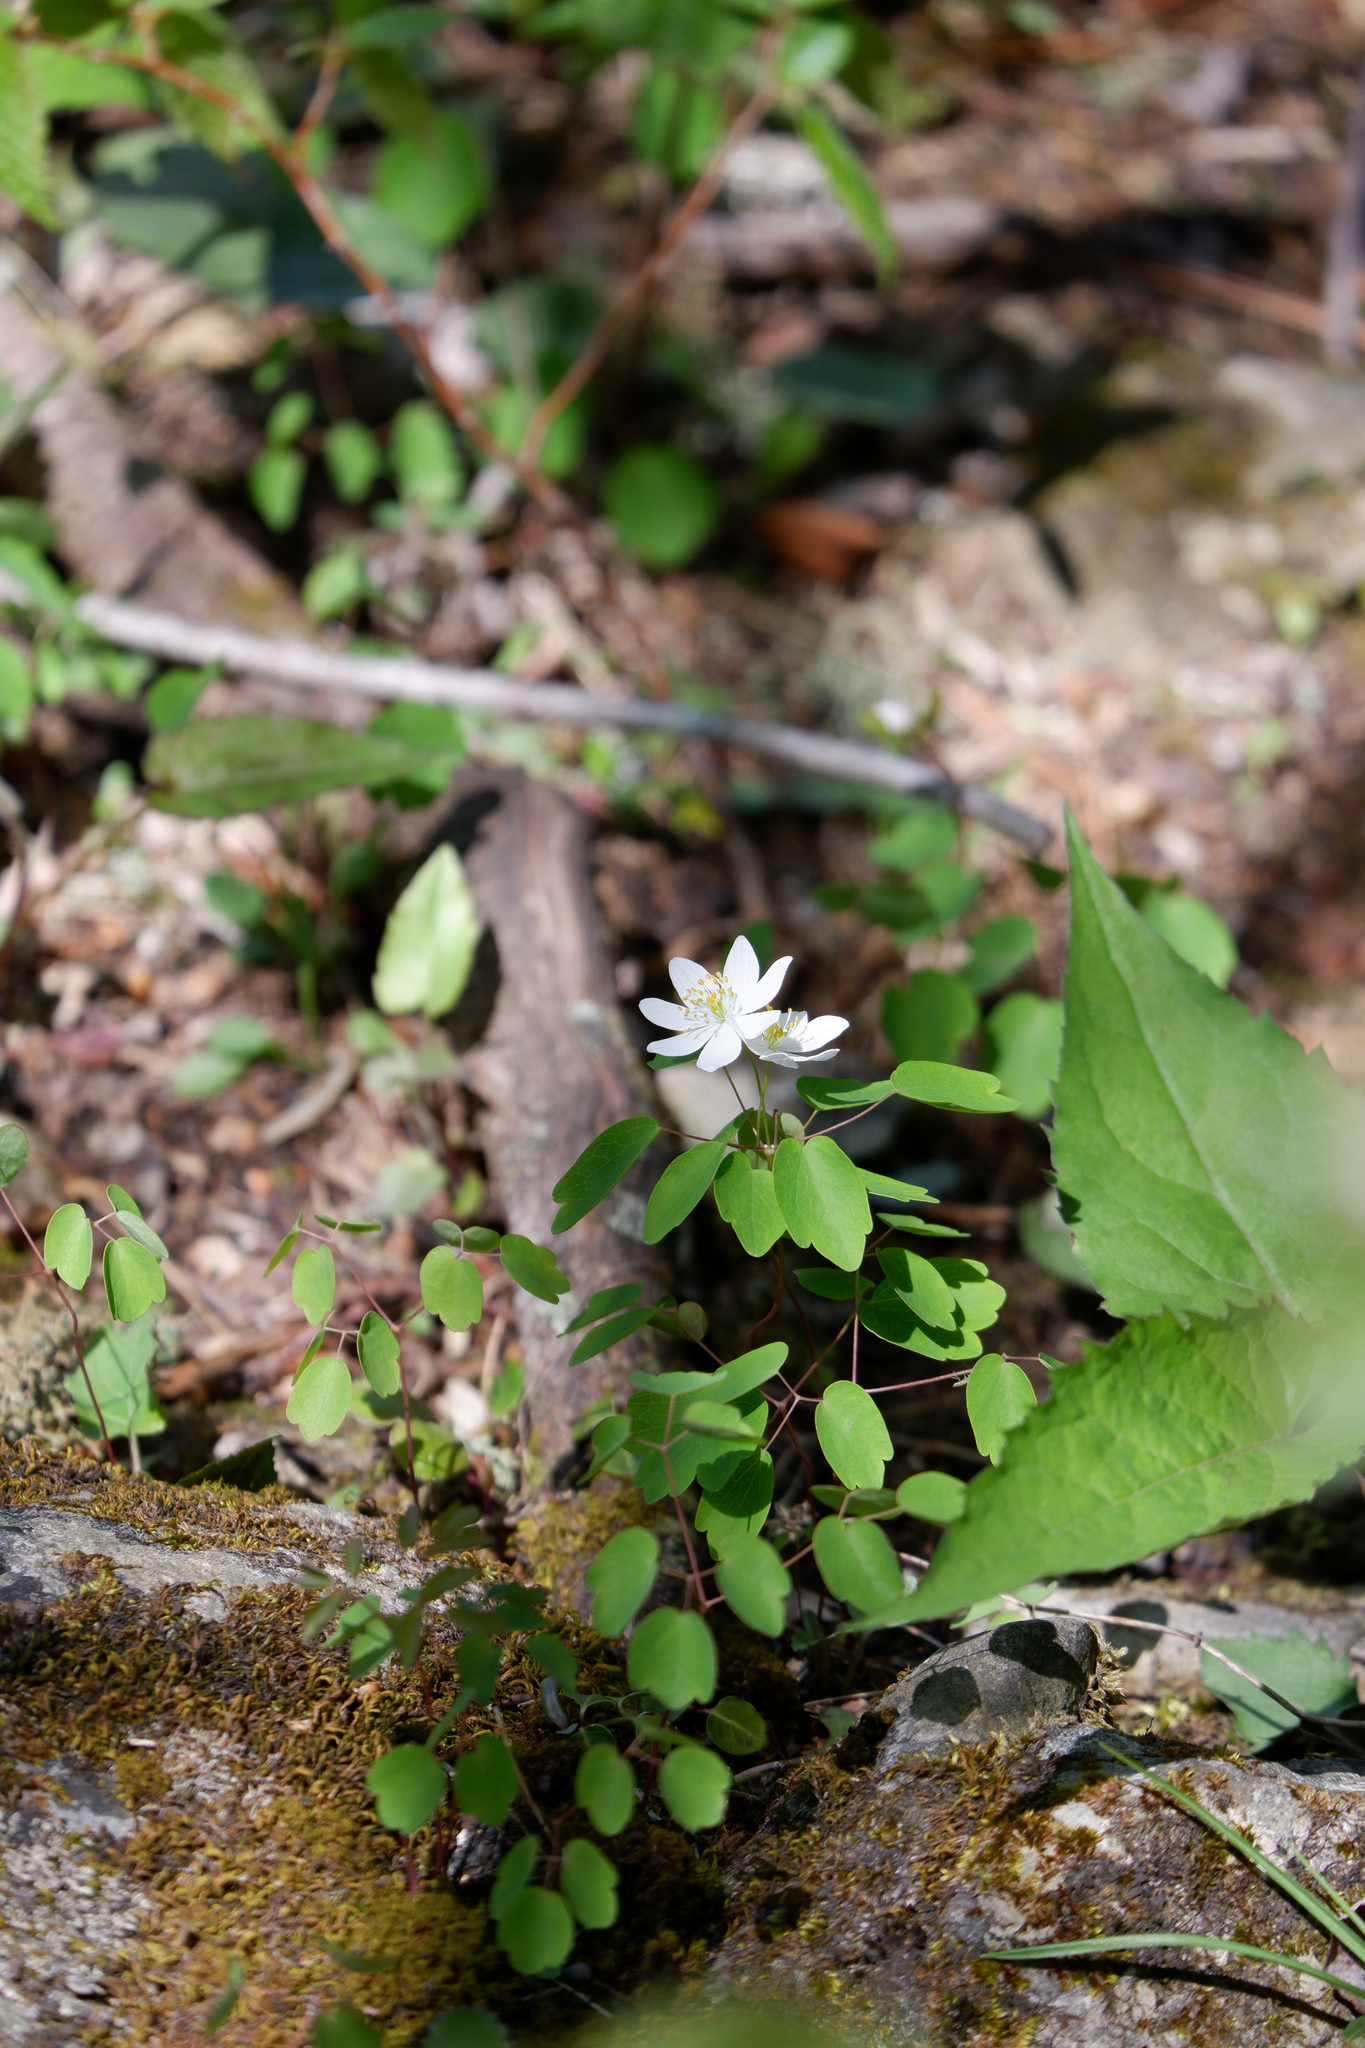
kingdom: Plantae
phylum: Tracheophyta
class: Magnoliopsida
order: Ranunculales
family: Ranunculaceae
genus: Thalictrum
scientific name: Thalictrum thalictroides
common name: Rue-anemone
